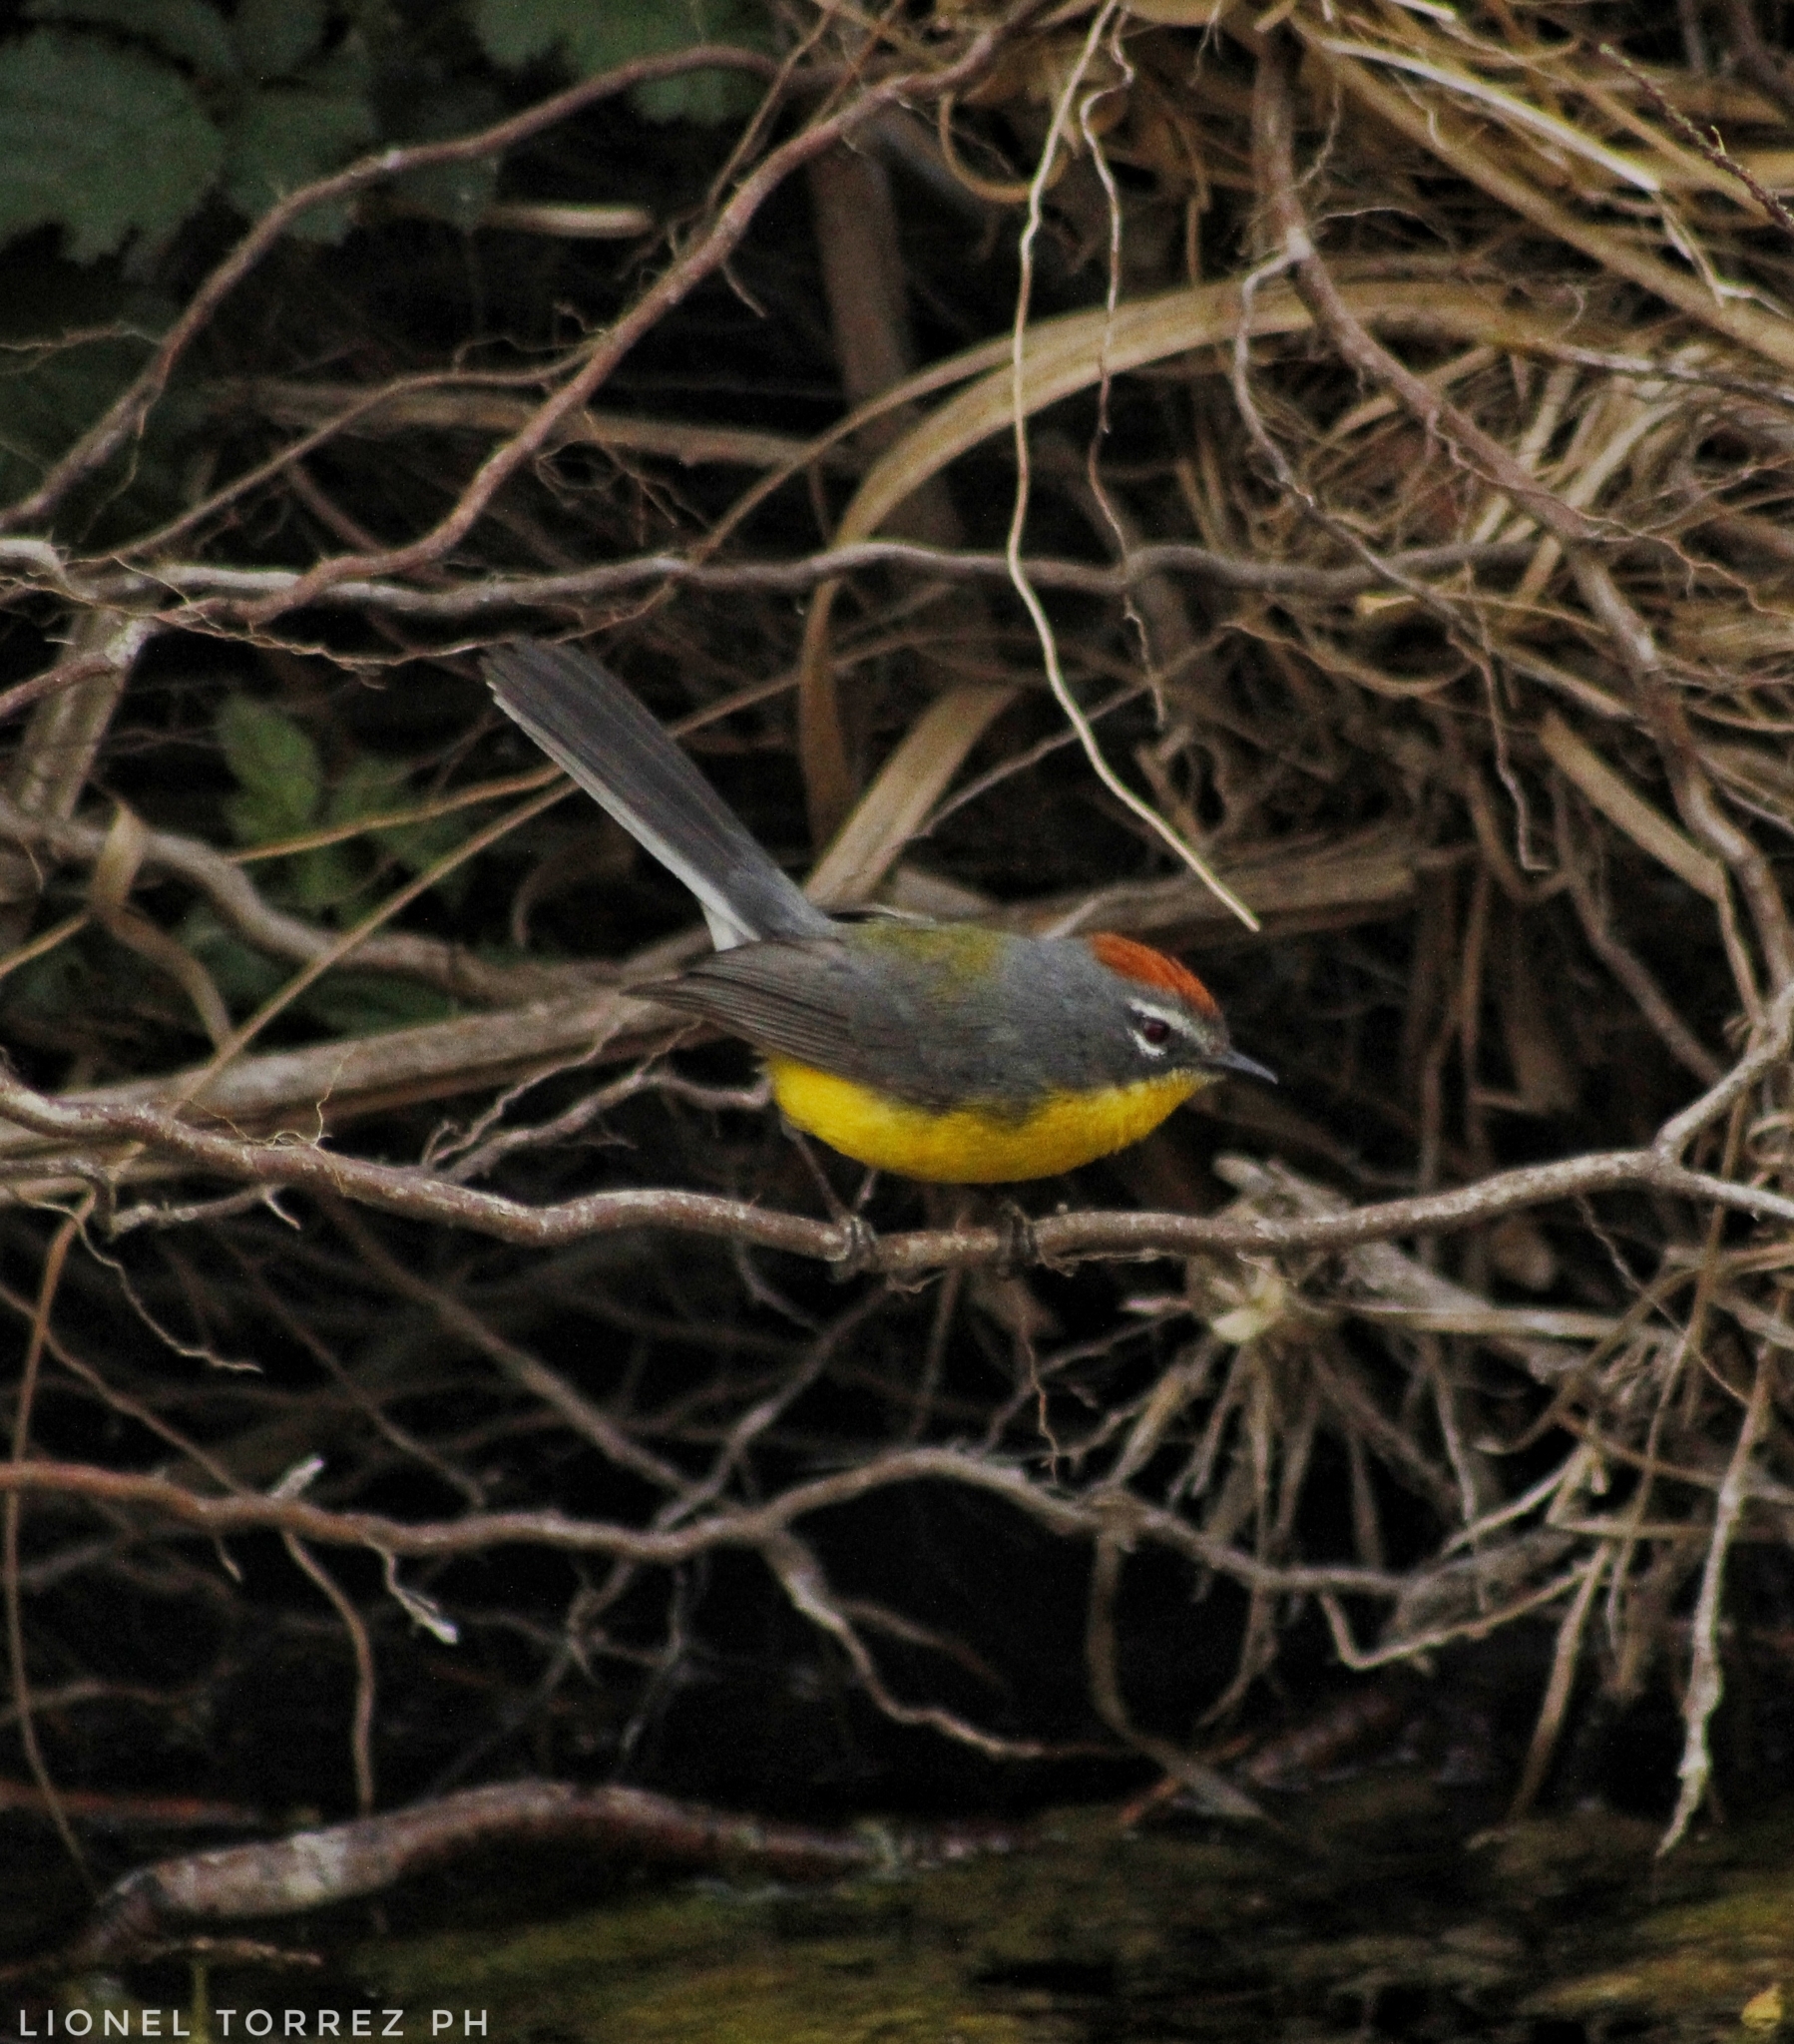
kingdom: Animalia
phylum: Chordata
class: Aves
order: Passeriformes
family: Parulidae
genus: Myioborus
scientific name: Myioborus brunniceps
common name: Brown-capped whitestart
